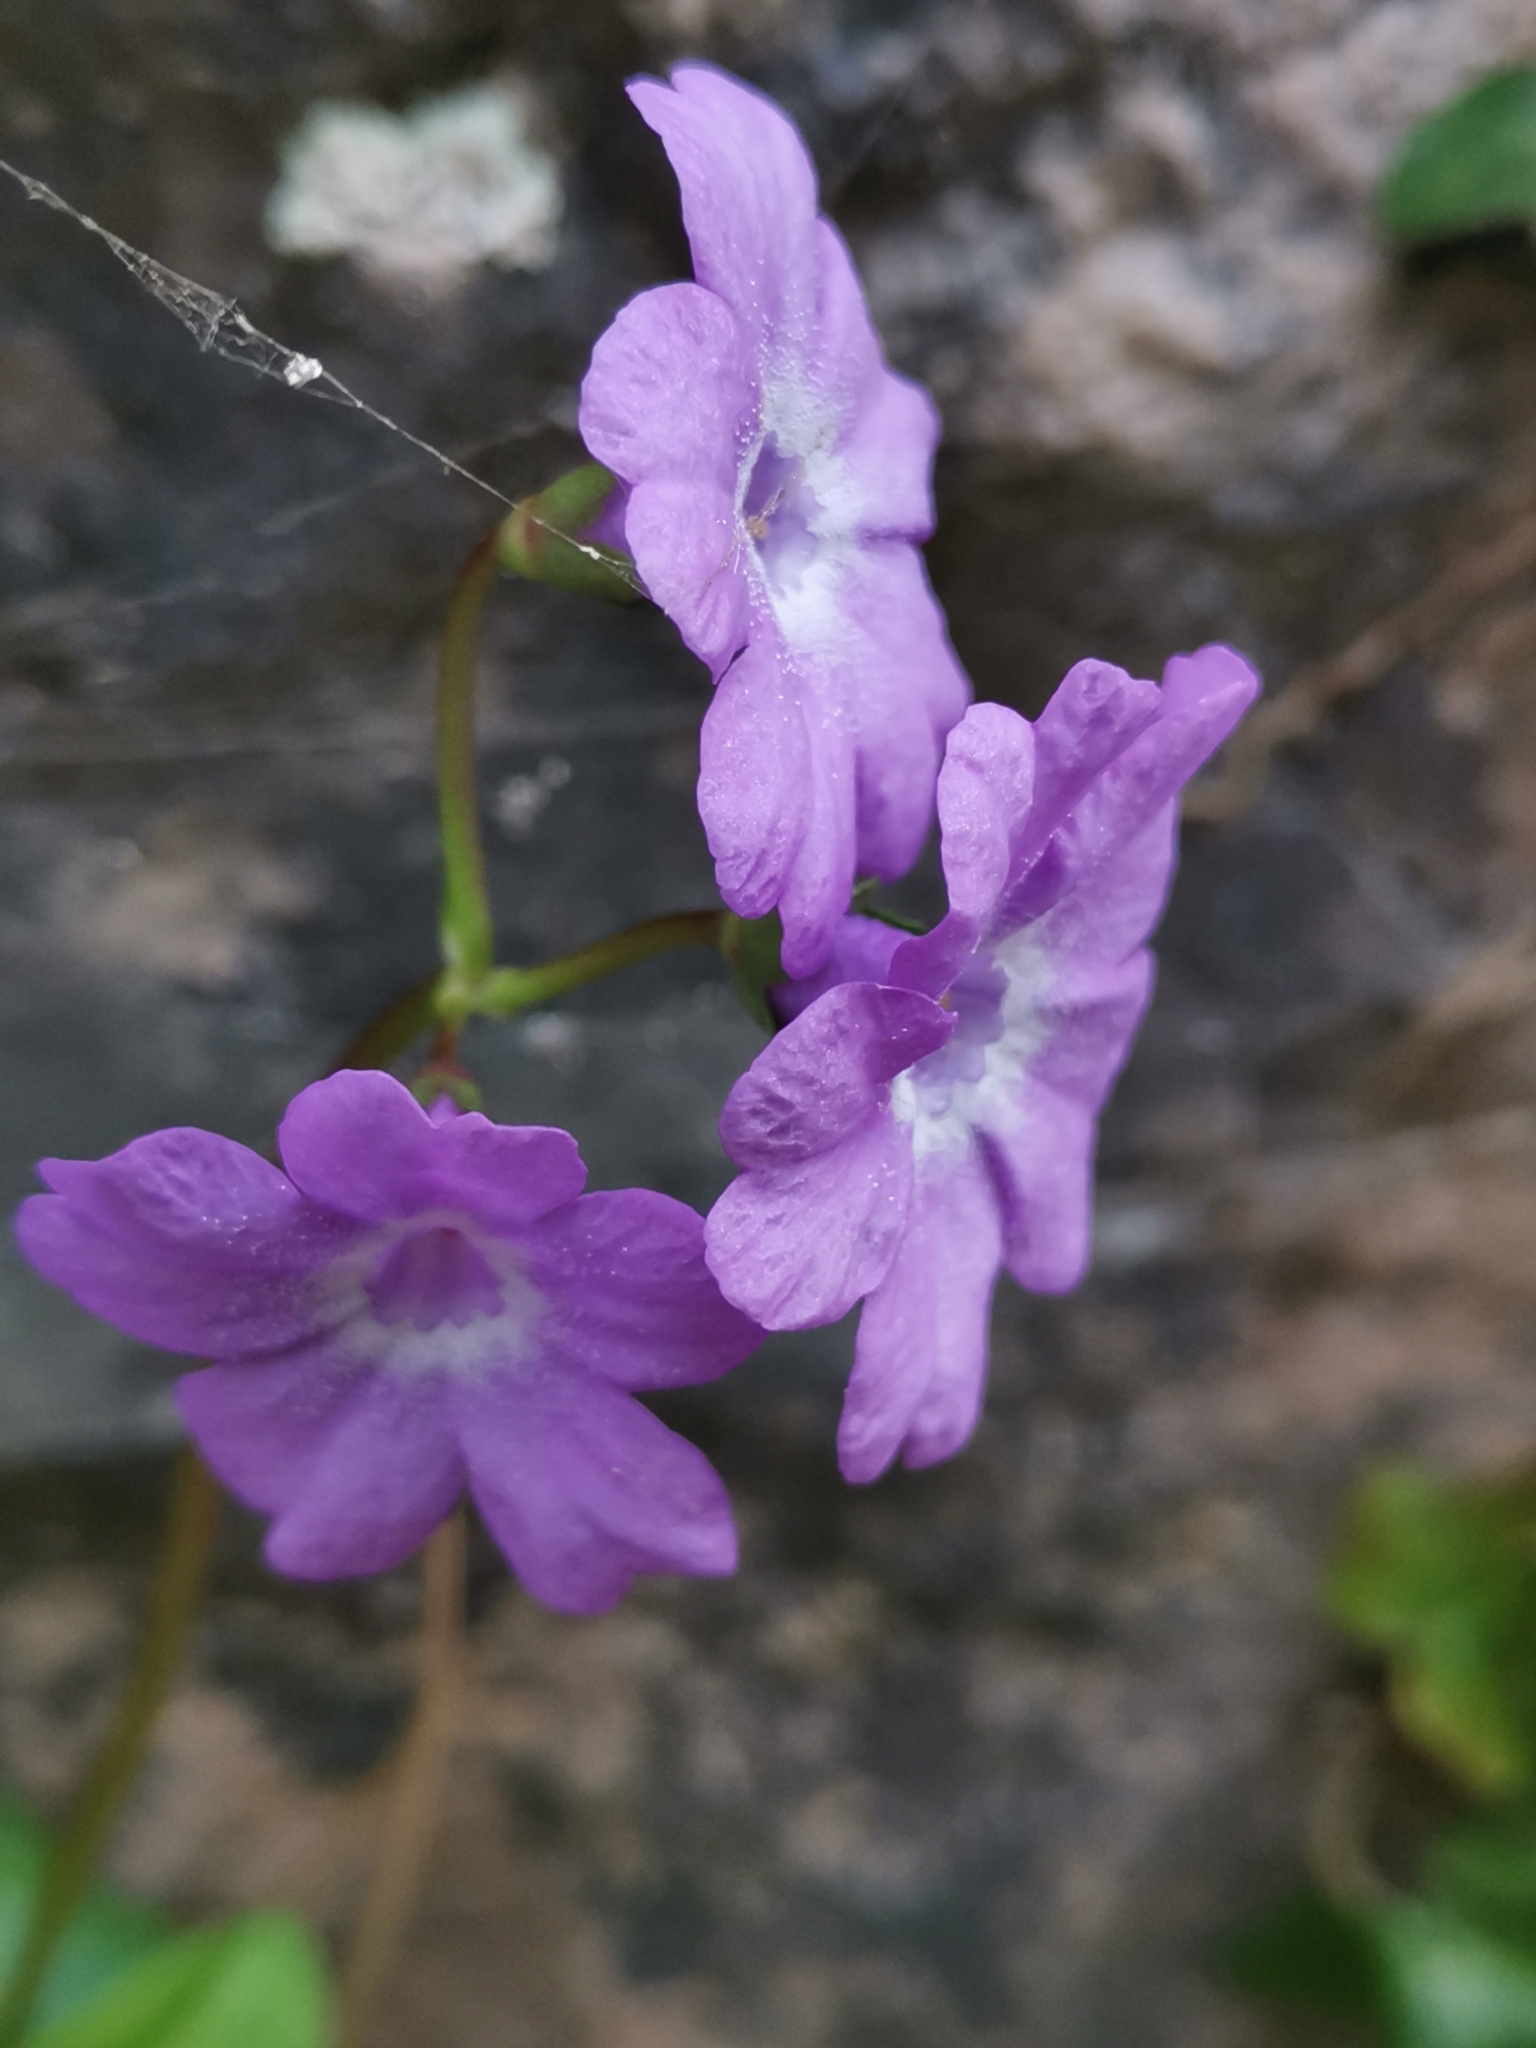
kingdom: Plantae
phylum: Tracheophyta
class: Magnoliopsida
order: Ericales
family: Primulaceae
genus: Primula
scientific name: Primula carniolica
